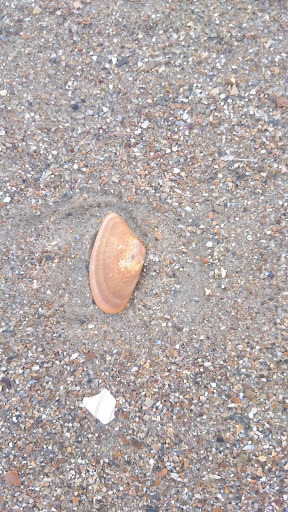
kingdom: Animalia
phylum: Mollusca
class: Bivalvia
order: Cardiida
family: Donacidae
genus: Donax
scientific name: Donax vittatus
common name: Banded wedge-shell
